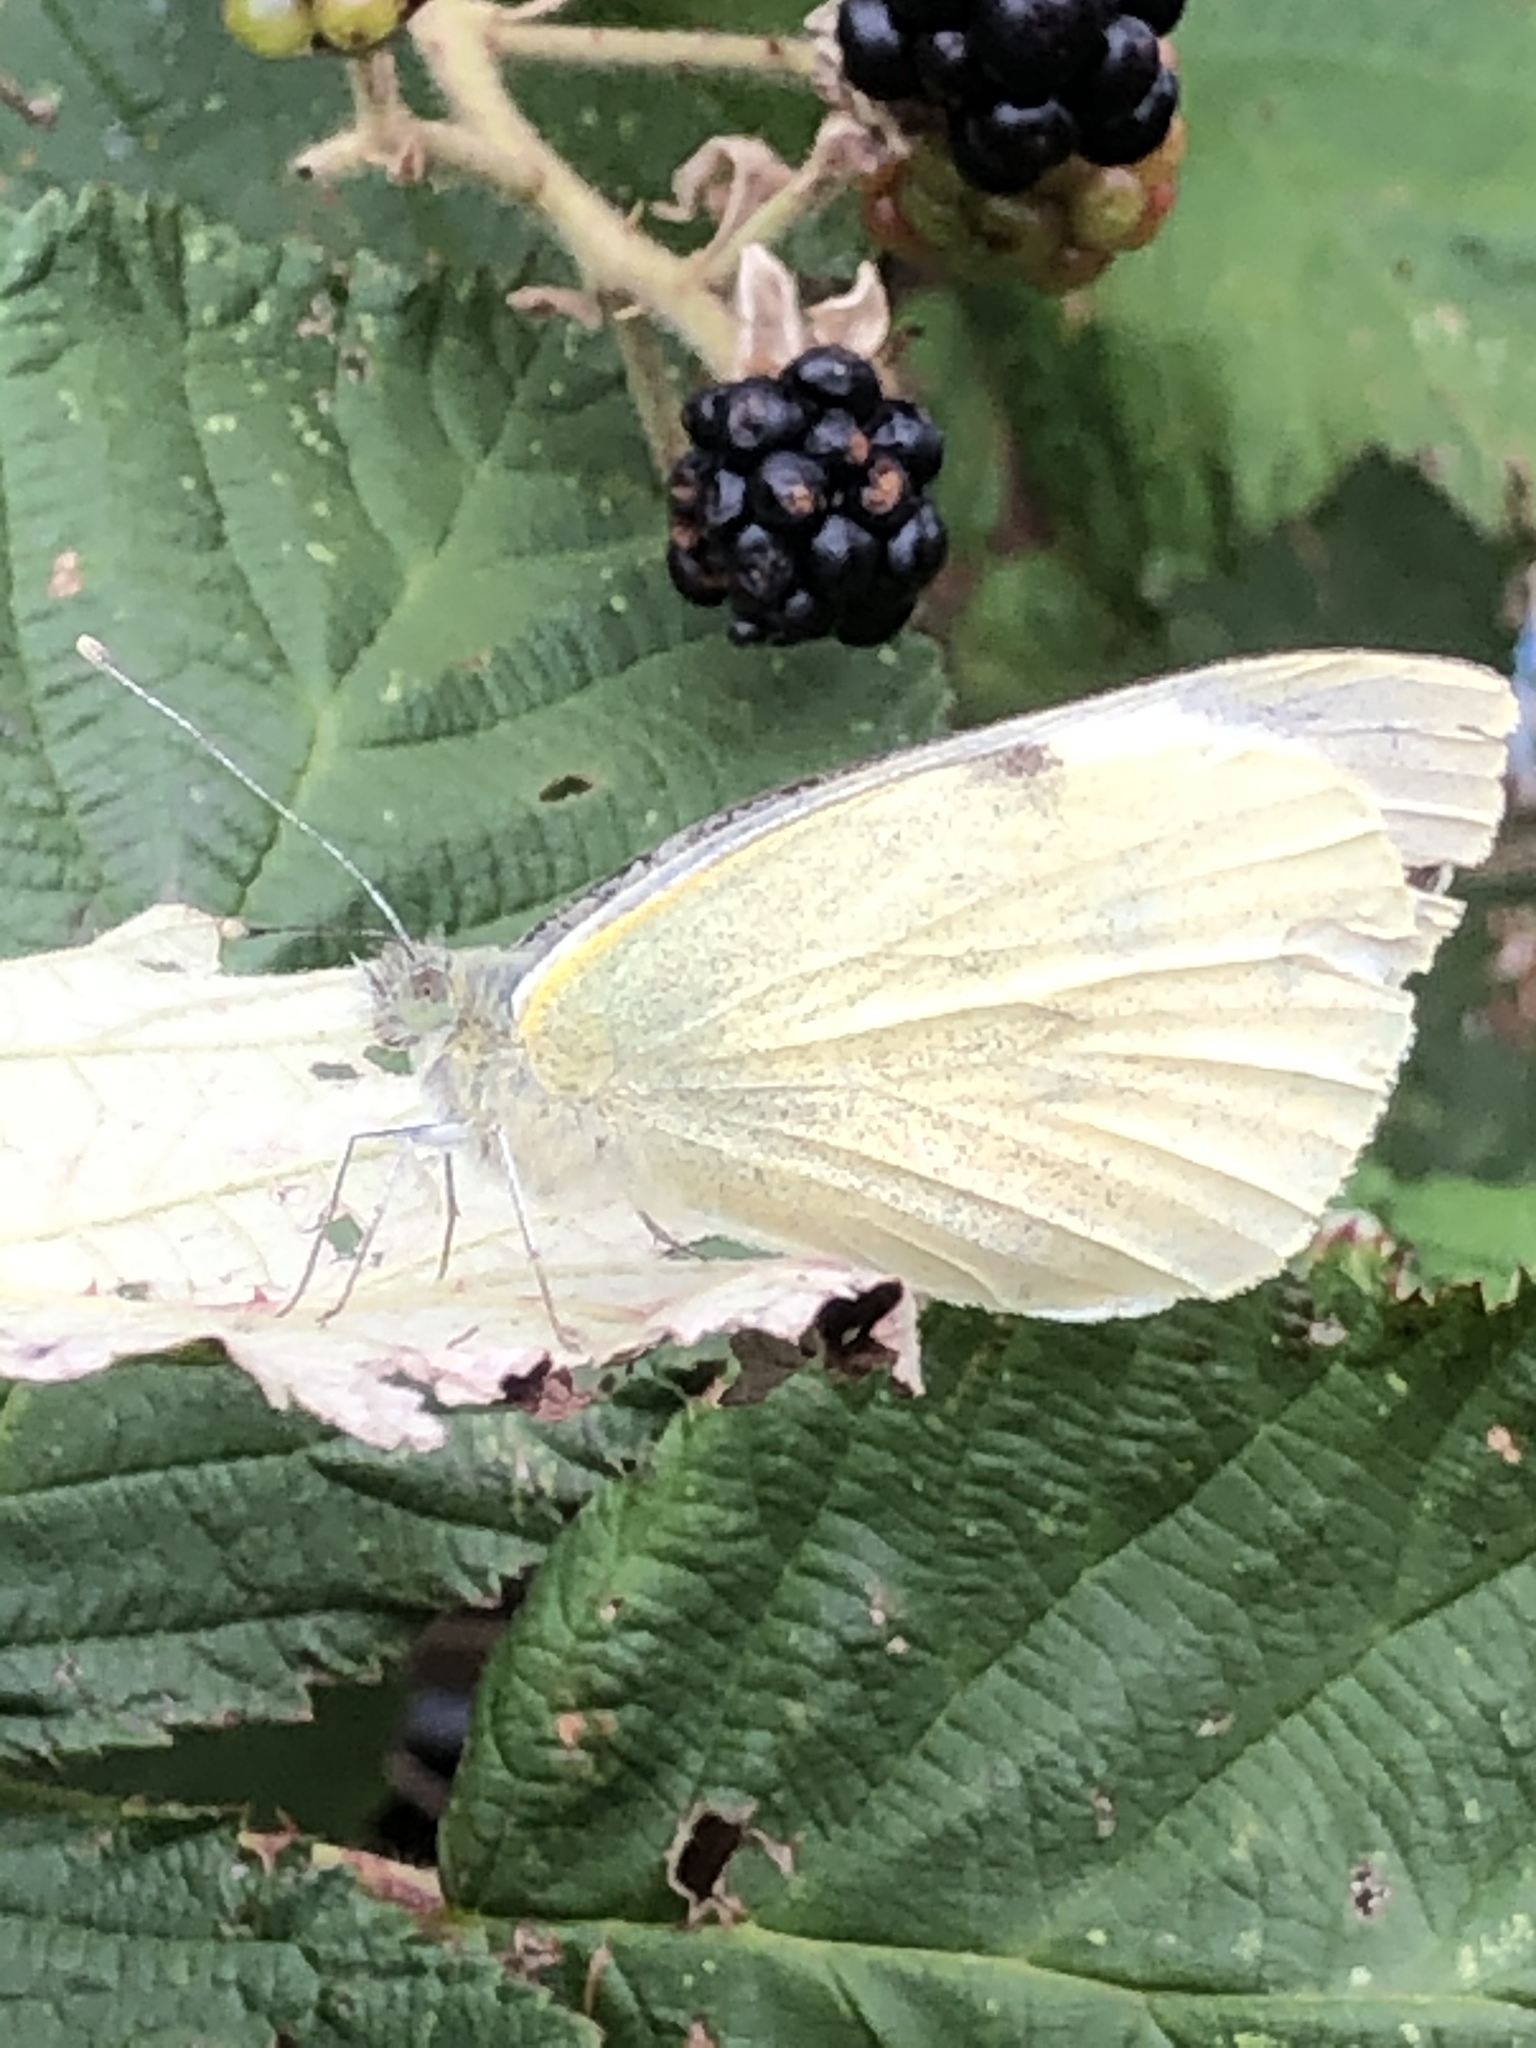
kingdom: Animalia
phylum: Arthropoda
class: Insecta
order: Lepidoptera
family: Pieridae
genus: Pieris
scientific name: Pieris brassicae
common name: Large white
